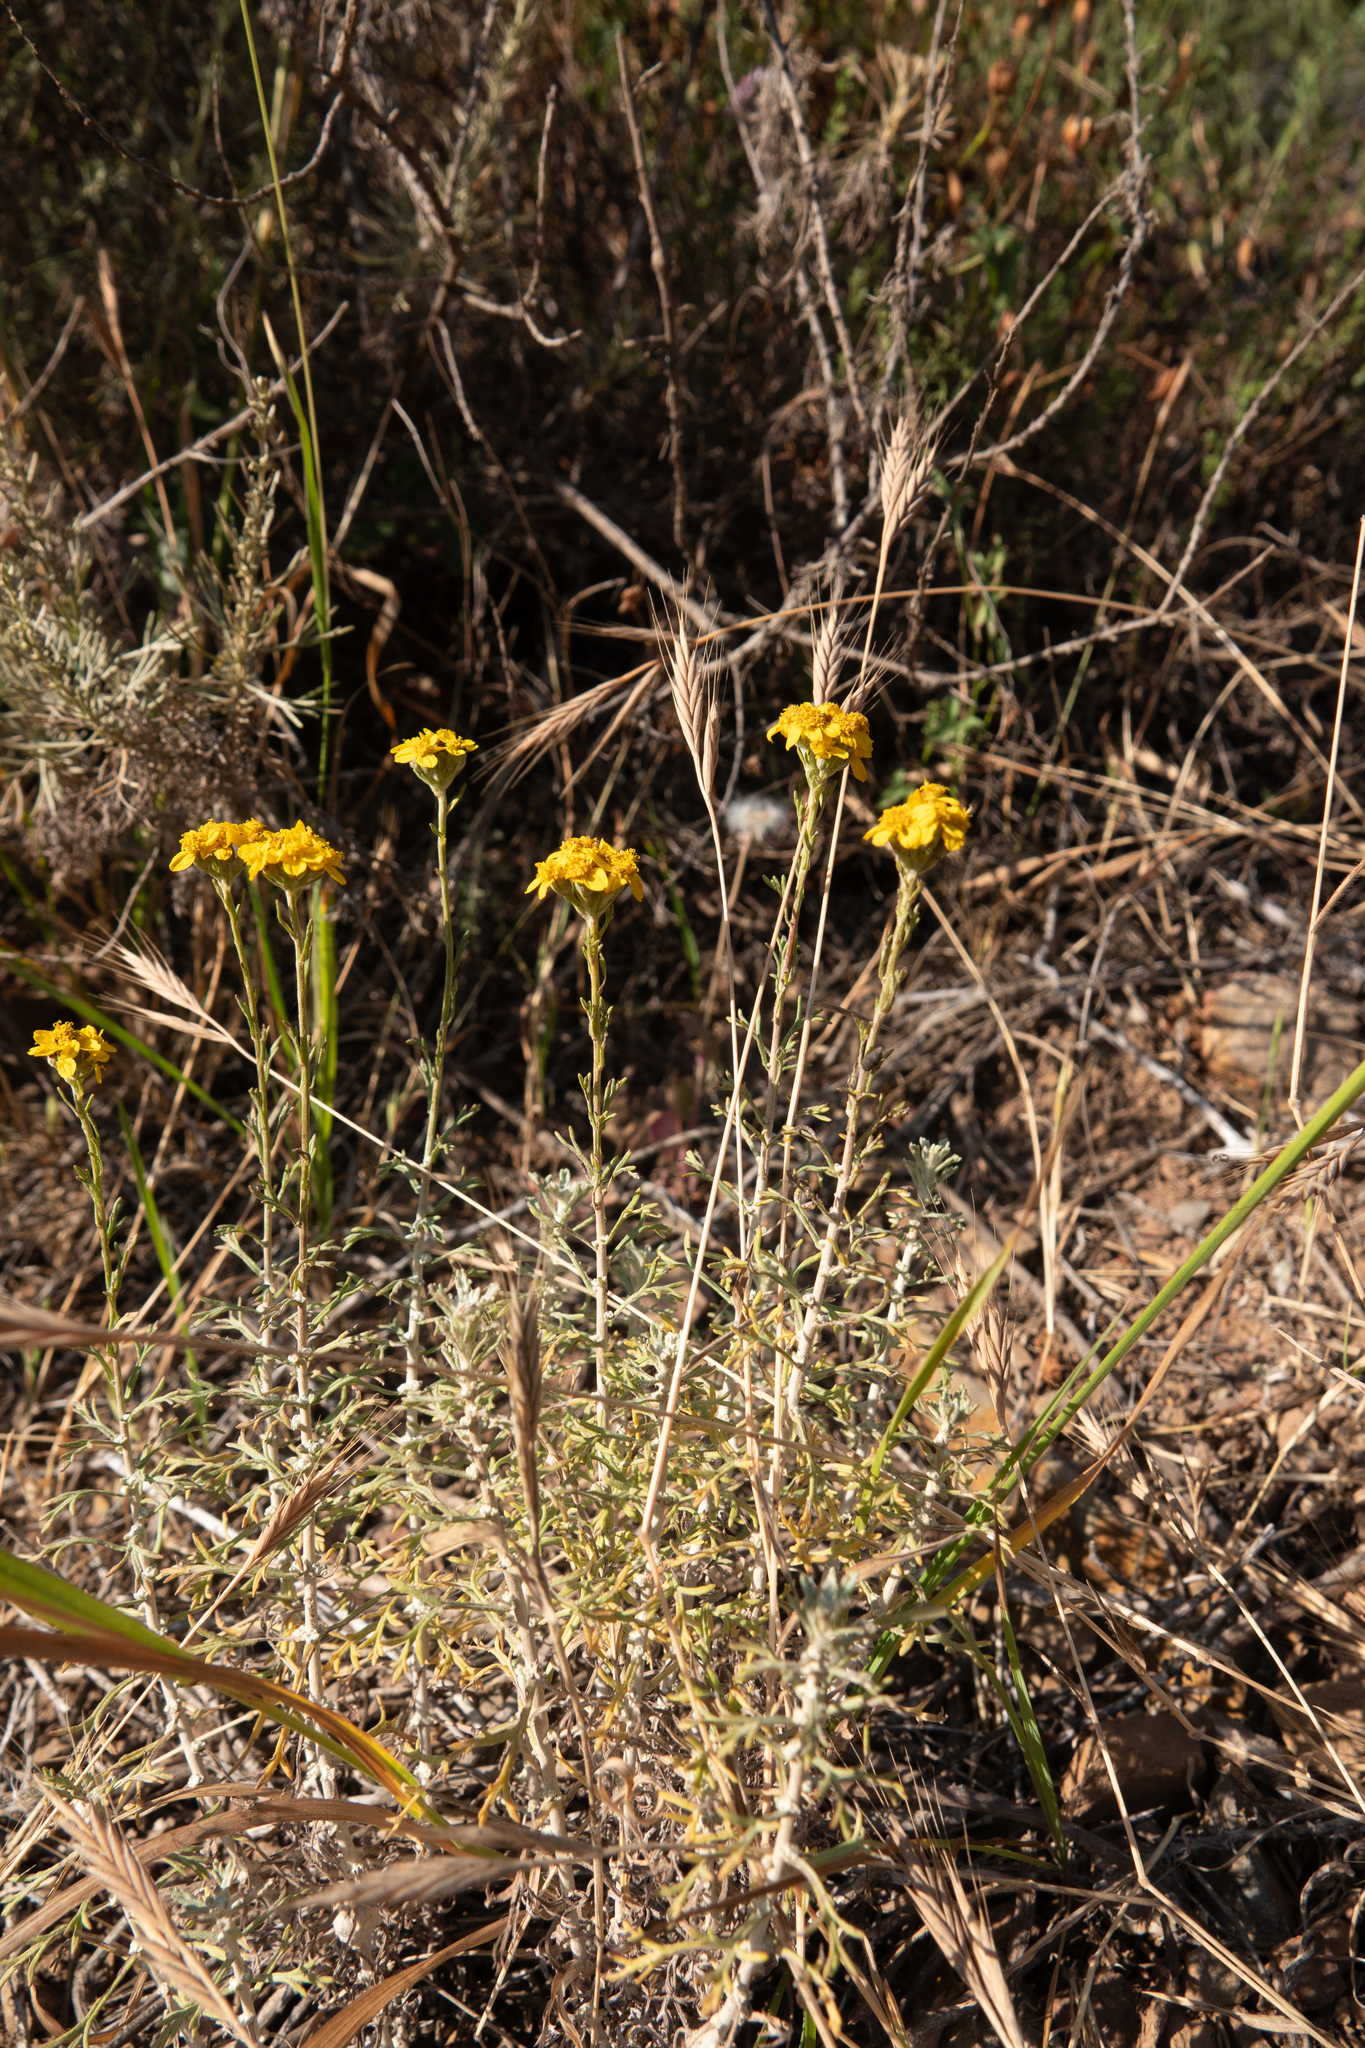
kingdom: Plantae
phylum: Tracheophyta
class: Magnoliopsida
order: Asterales
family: Asteraceae
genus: Eriophyllum
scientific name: Eriophyllum confertiflorum
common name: Golden-yarrow
